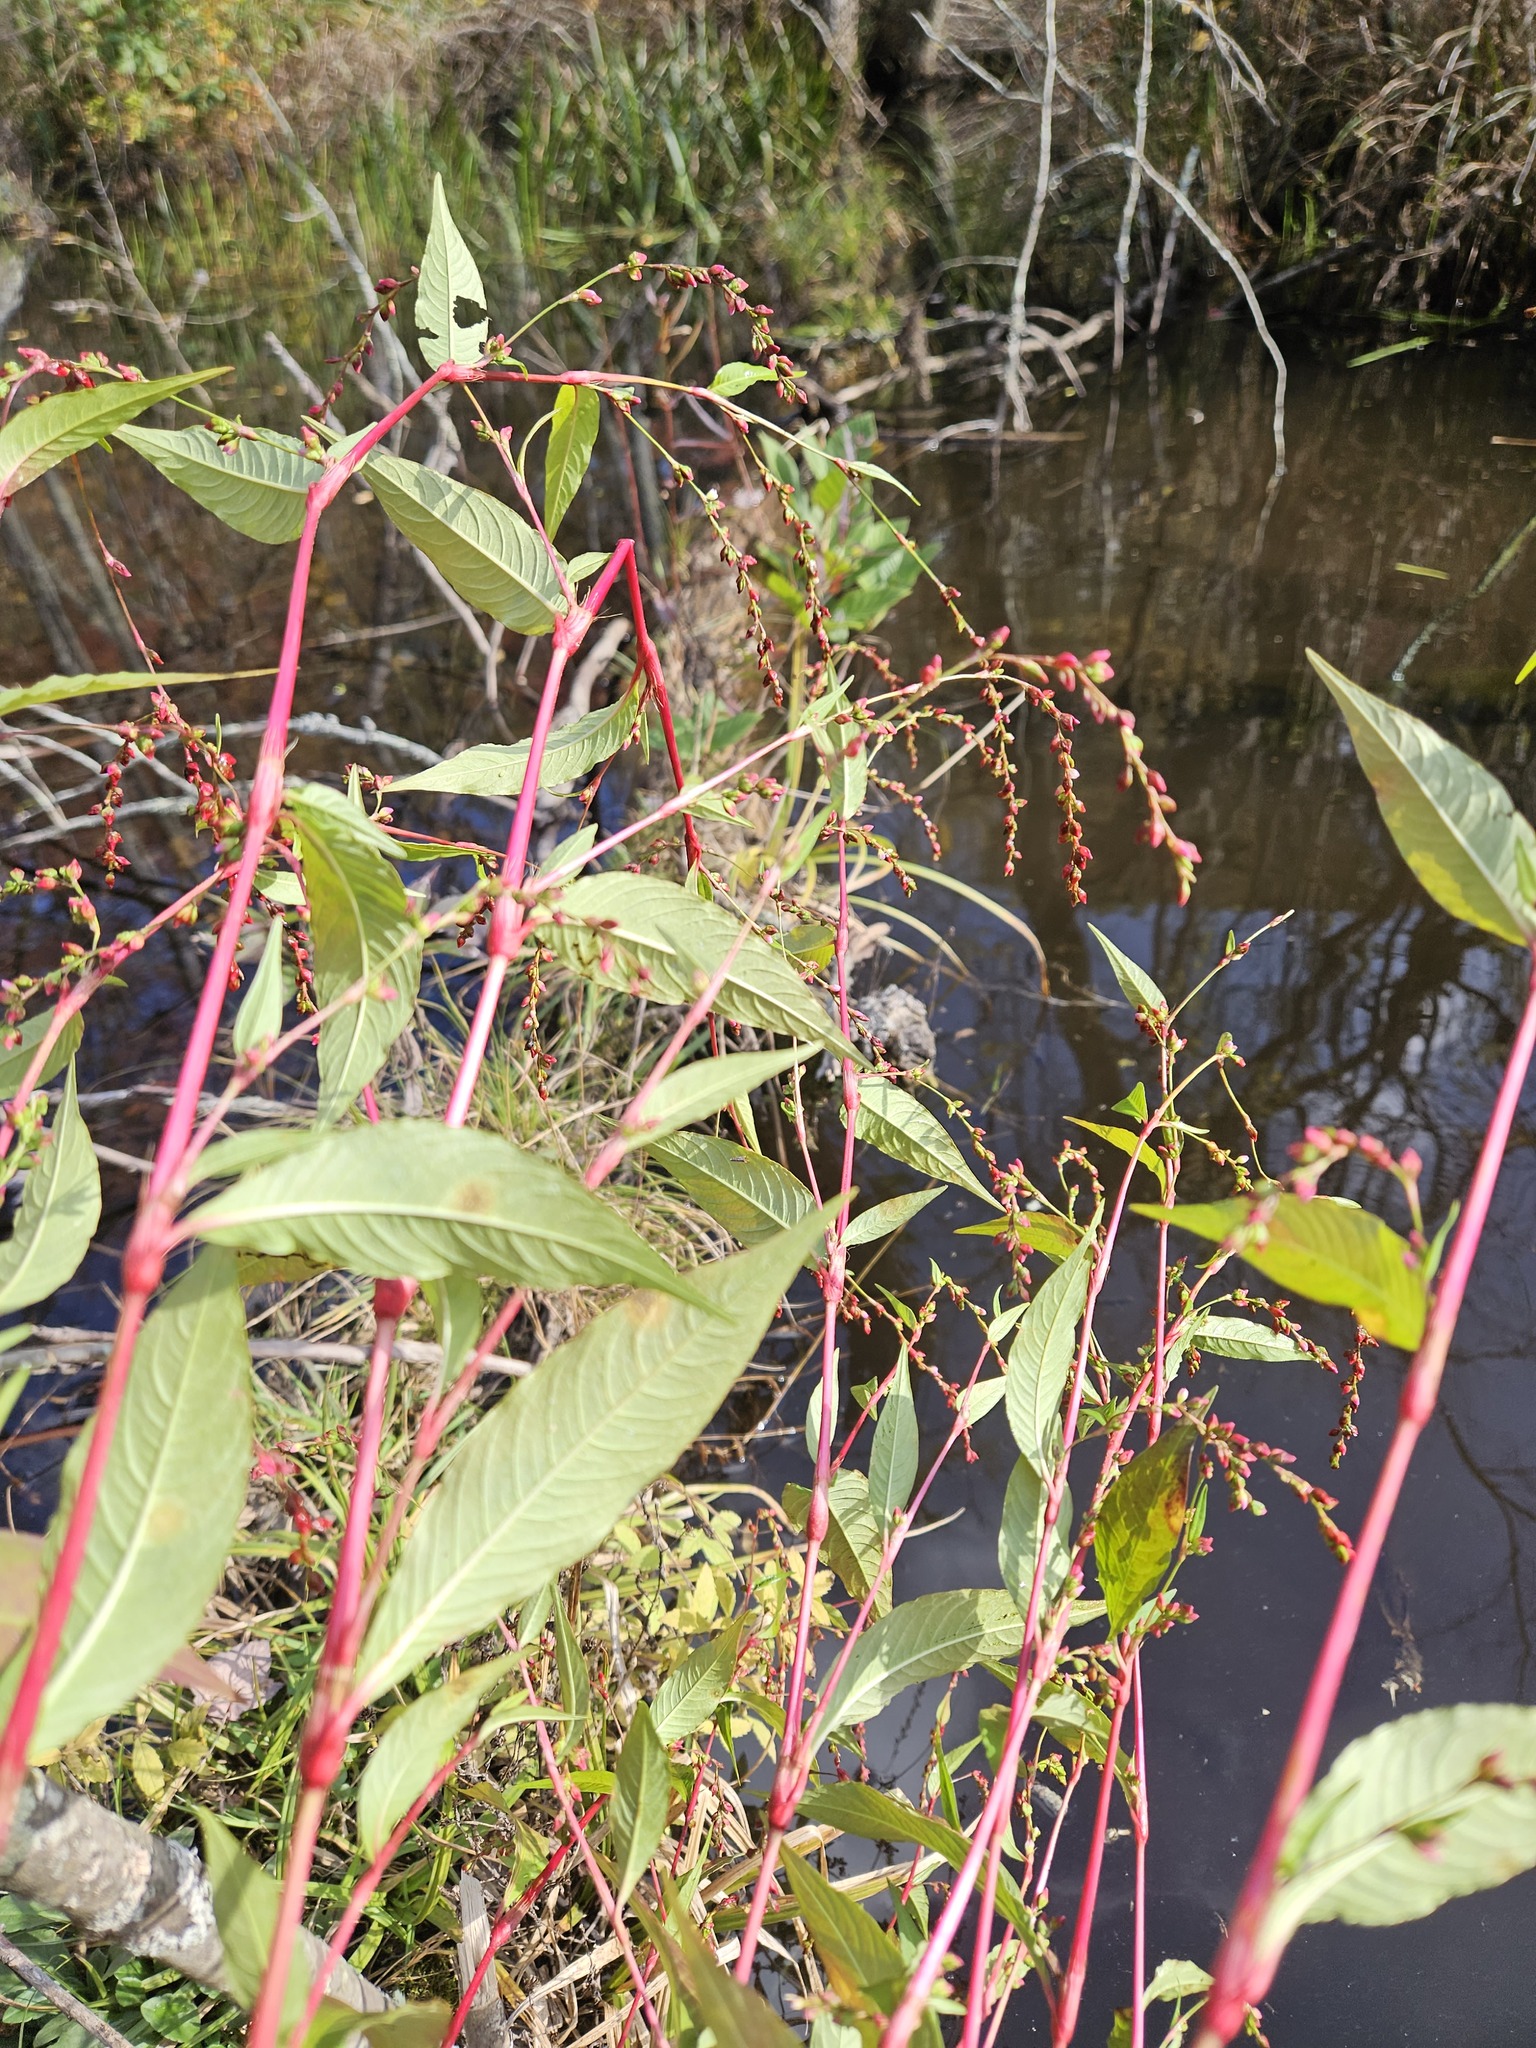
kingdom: Plantae
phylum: Tracheophyta
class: Magnoliopsida
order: Caryophyllales
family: Polygonaceae
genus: Persicaria
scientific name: Persicaria hydropiper
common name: Water-pepper
